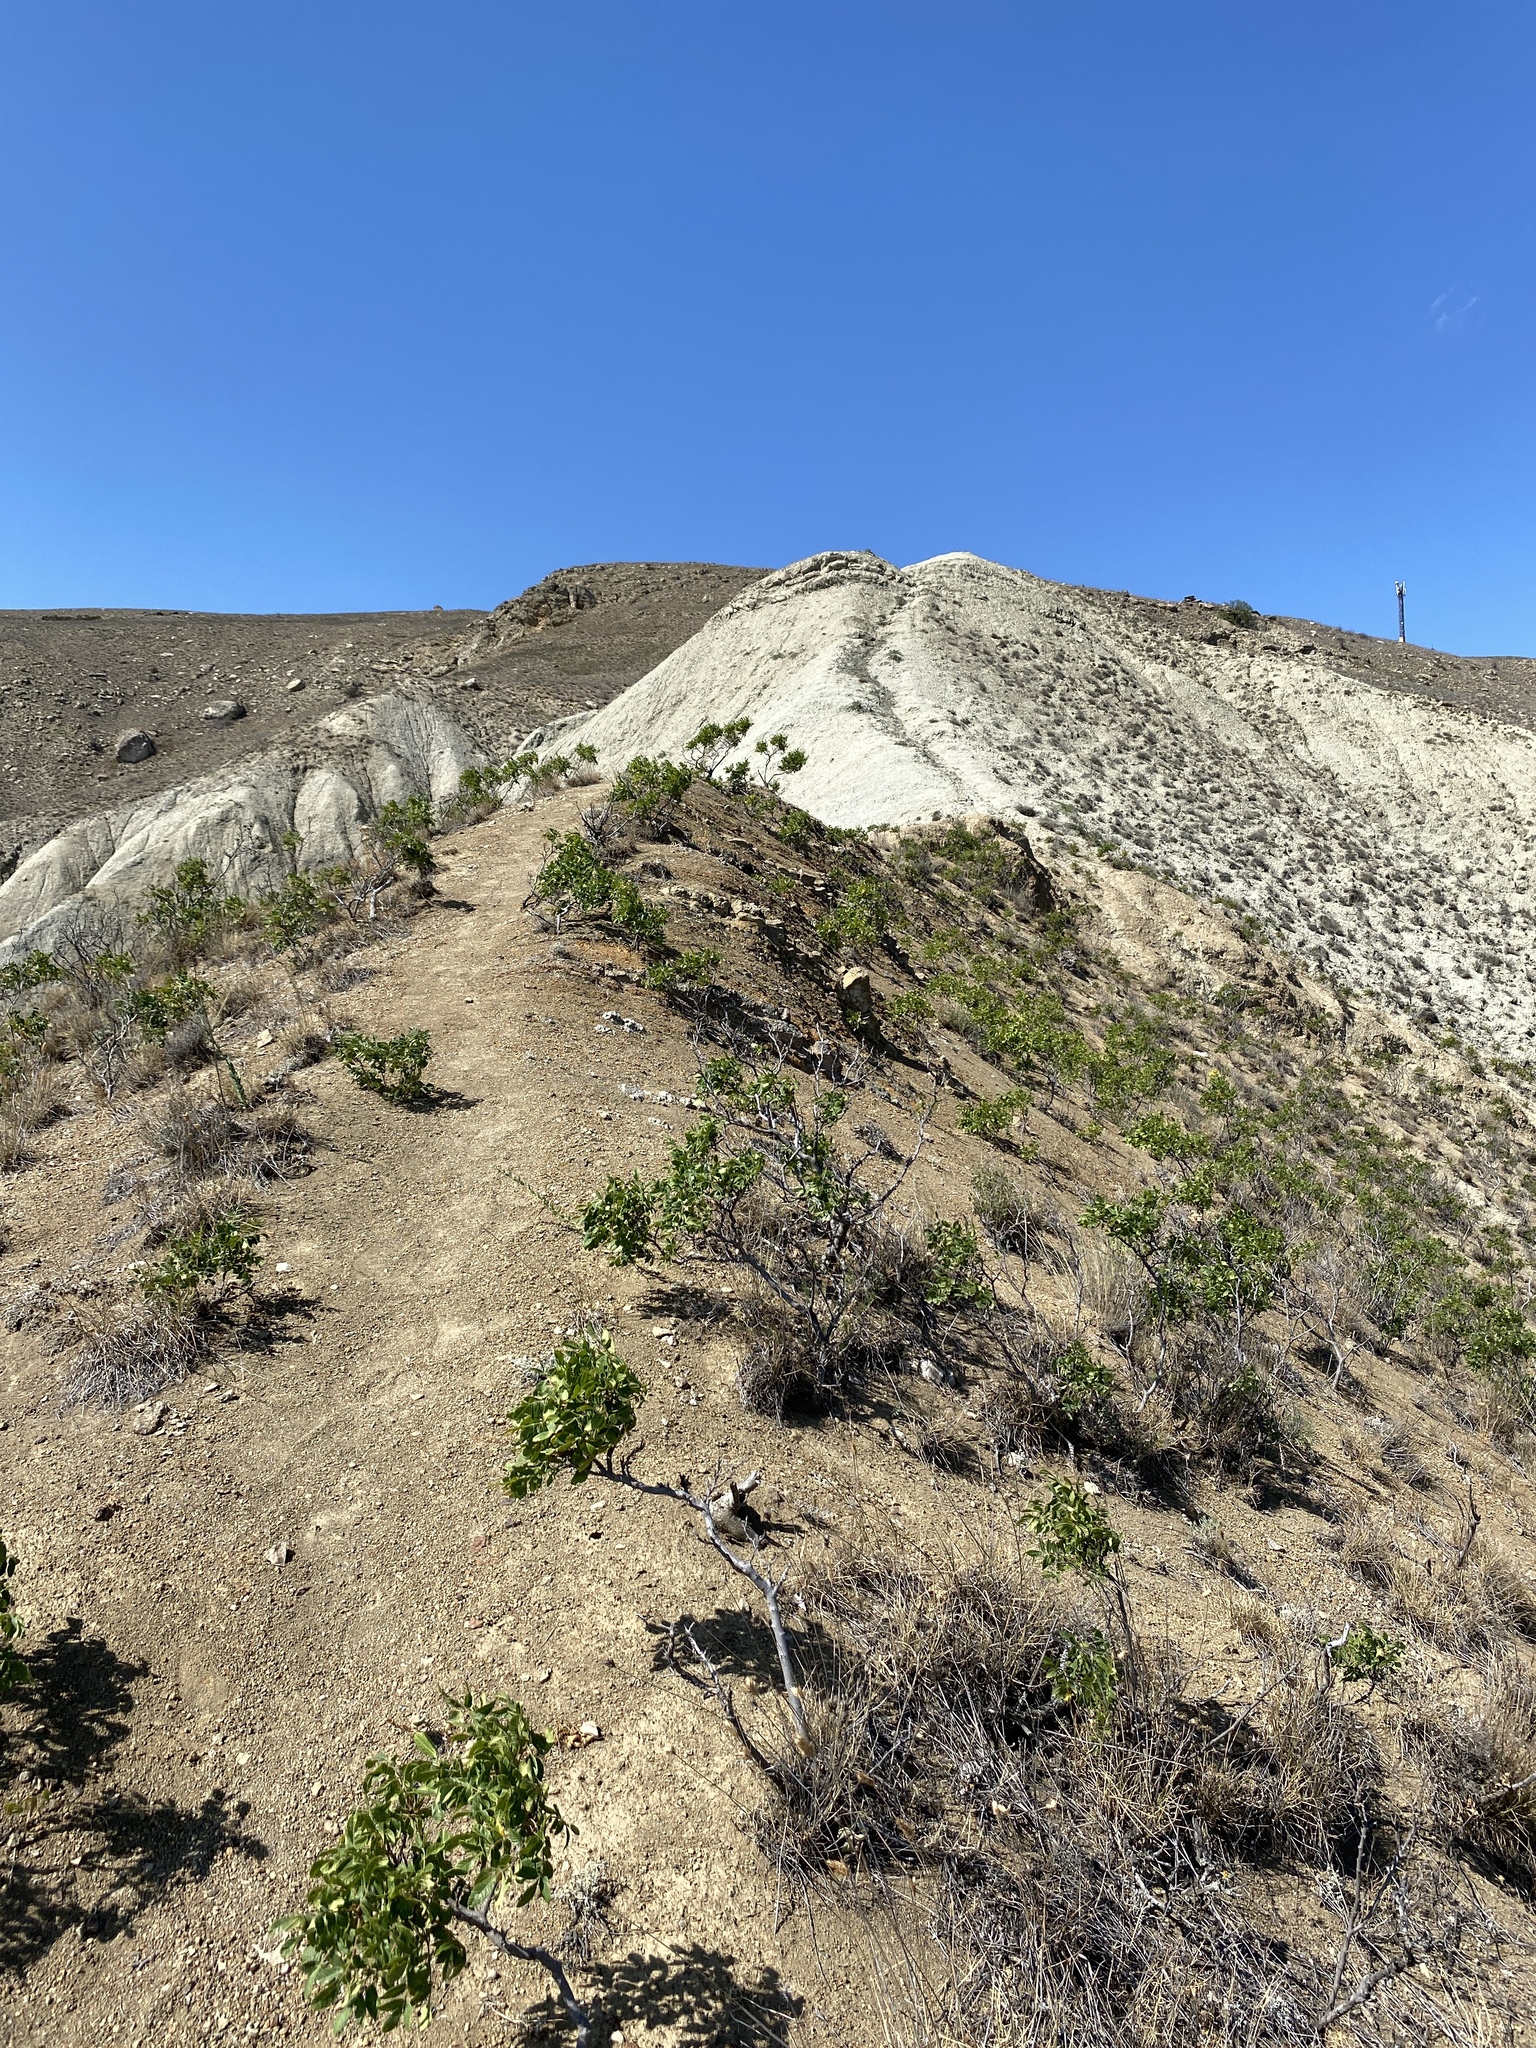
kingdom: Plantae
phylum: Tracheophyta
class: Magnoliopsida
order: Sapindales
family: Anacardiaceae
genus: Pistacia
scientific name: Pistacia atlantica
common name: Mt. atlas mastic tree
